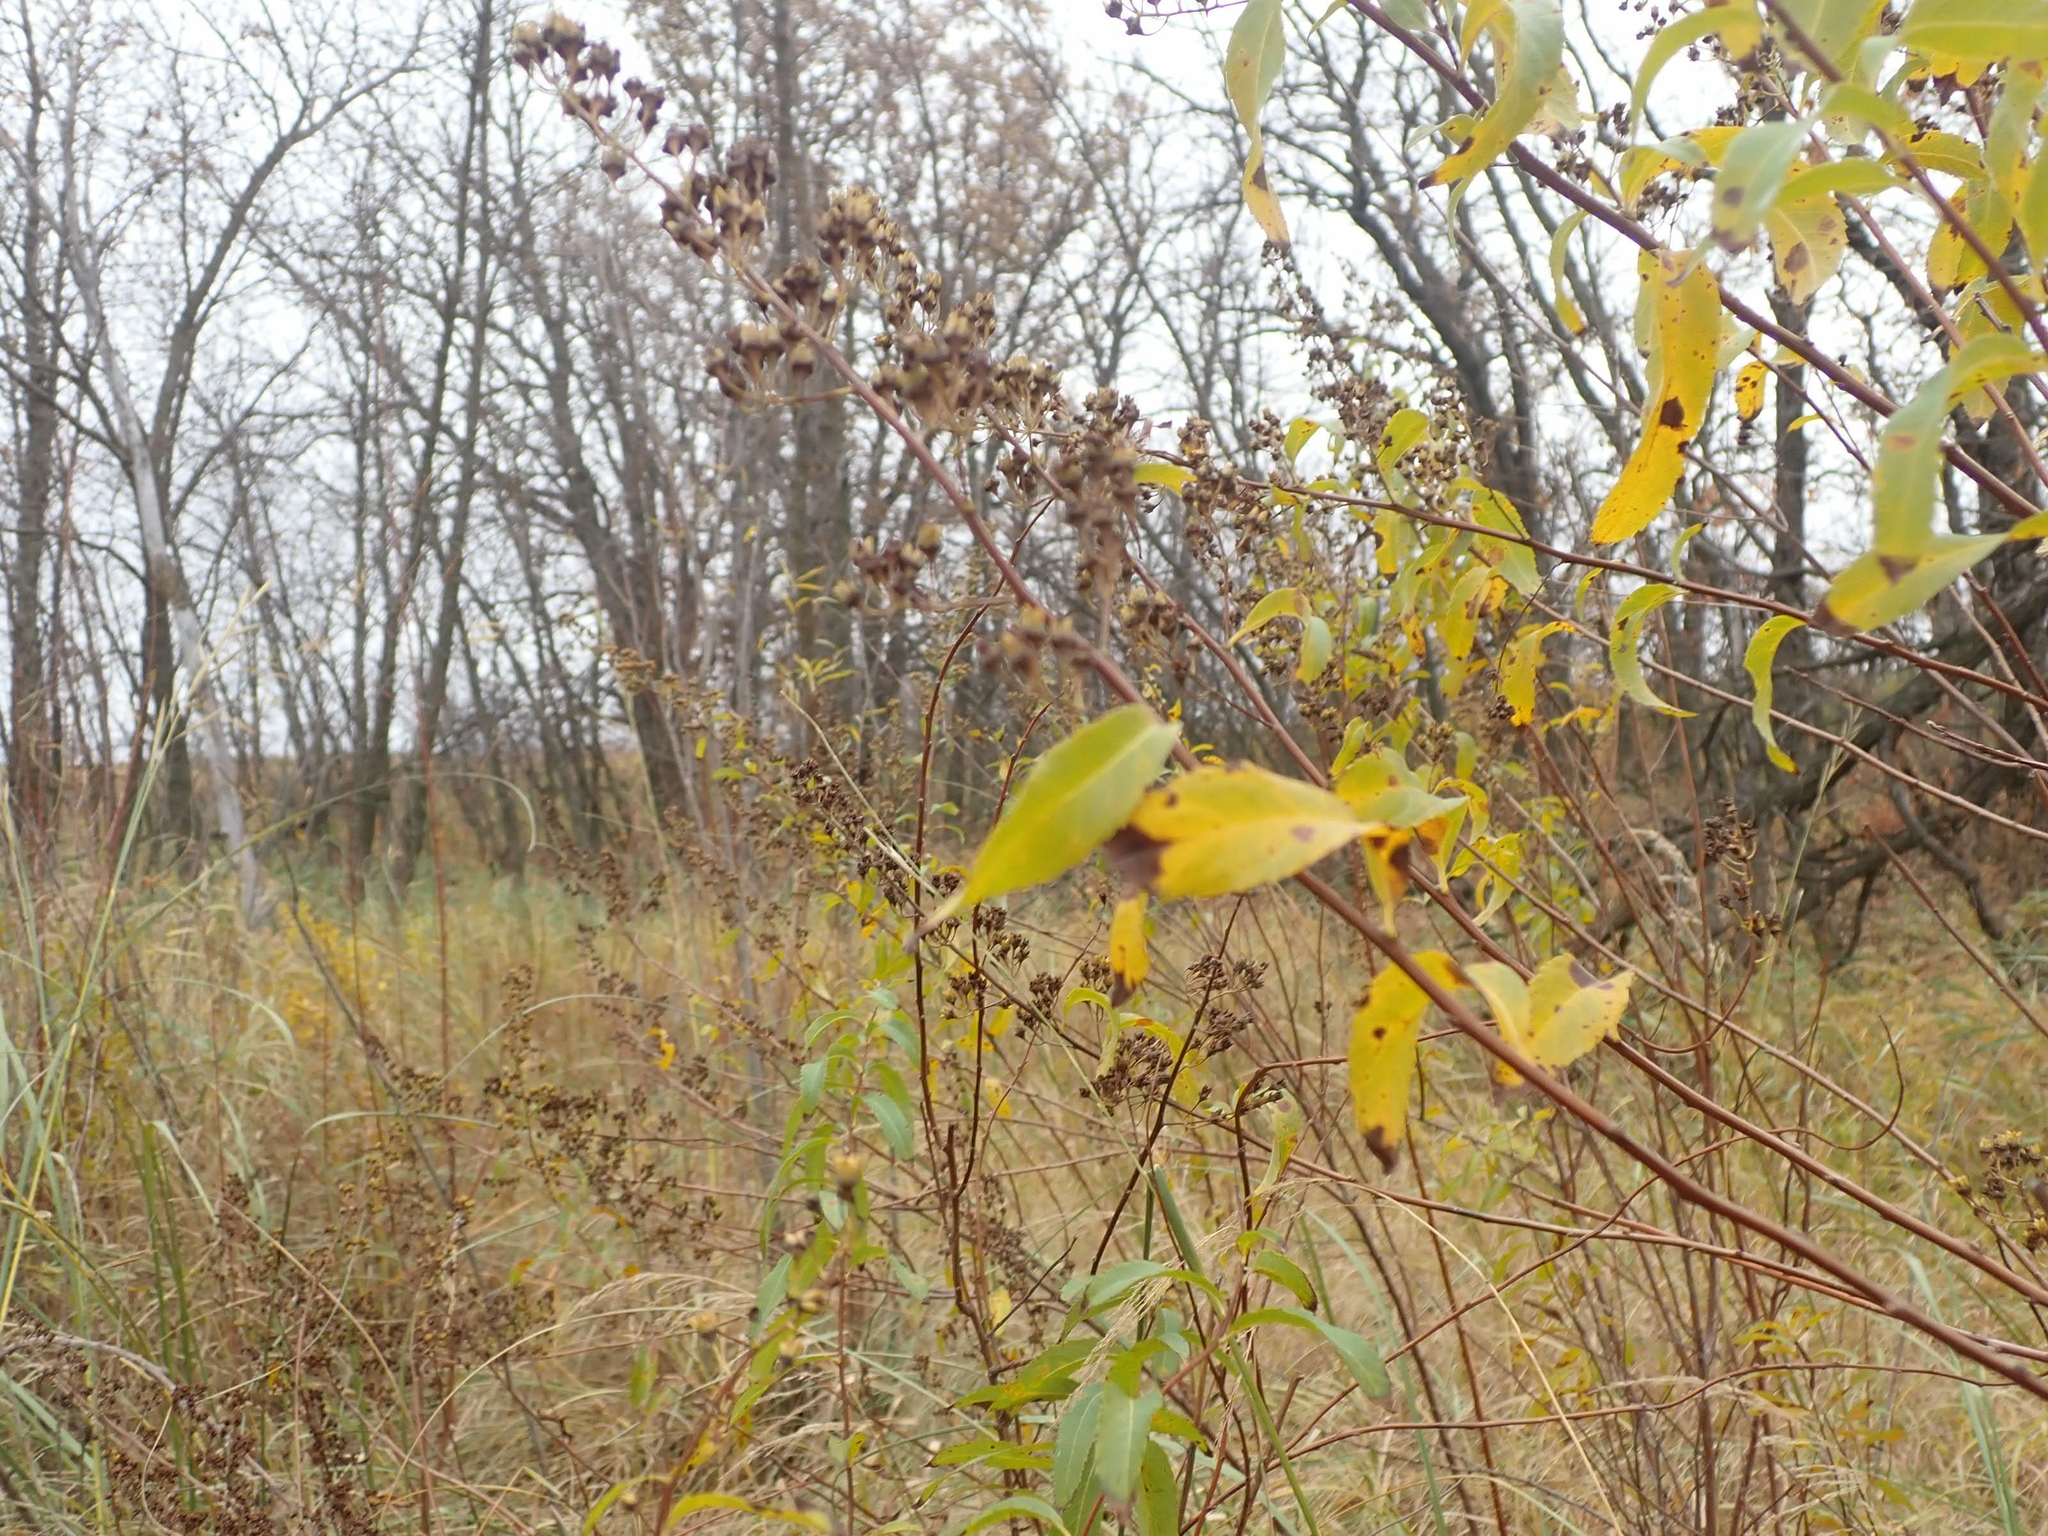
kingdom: Plantae
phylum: Tracheophyta
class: Magnoliopsida
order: Rosales
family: Rosaceae
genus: Spiraea
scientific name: Spiraea alba
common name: Pale bridewort
